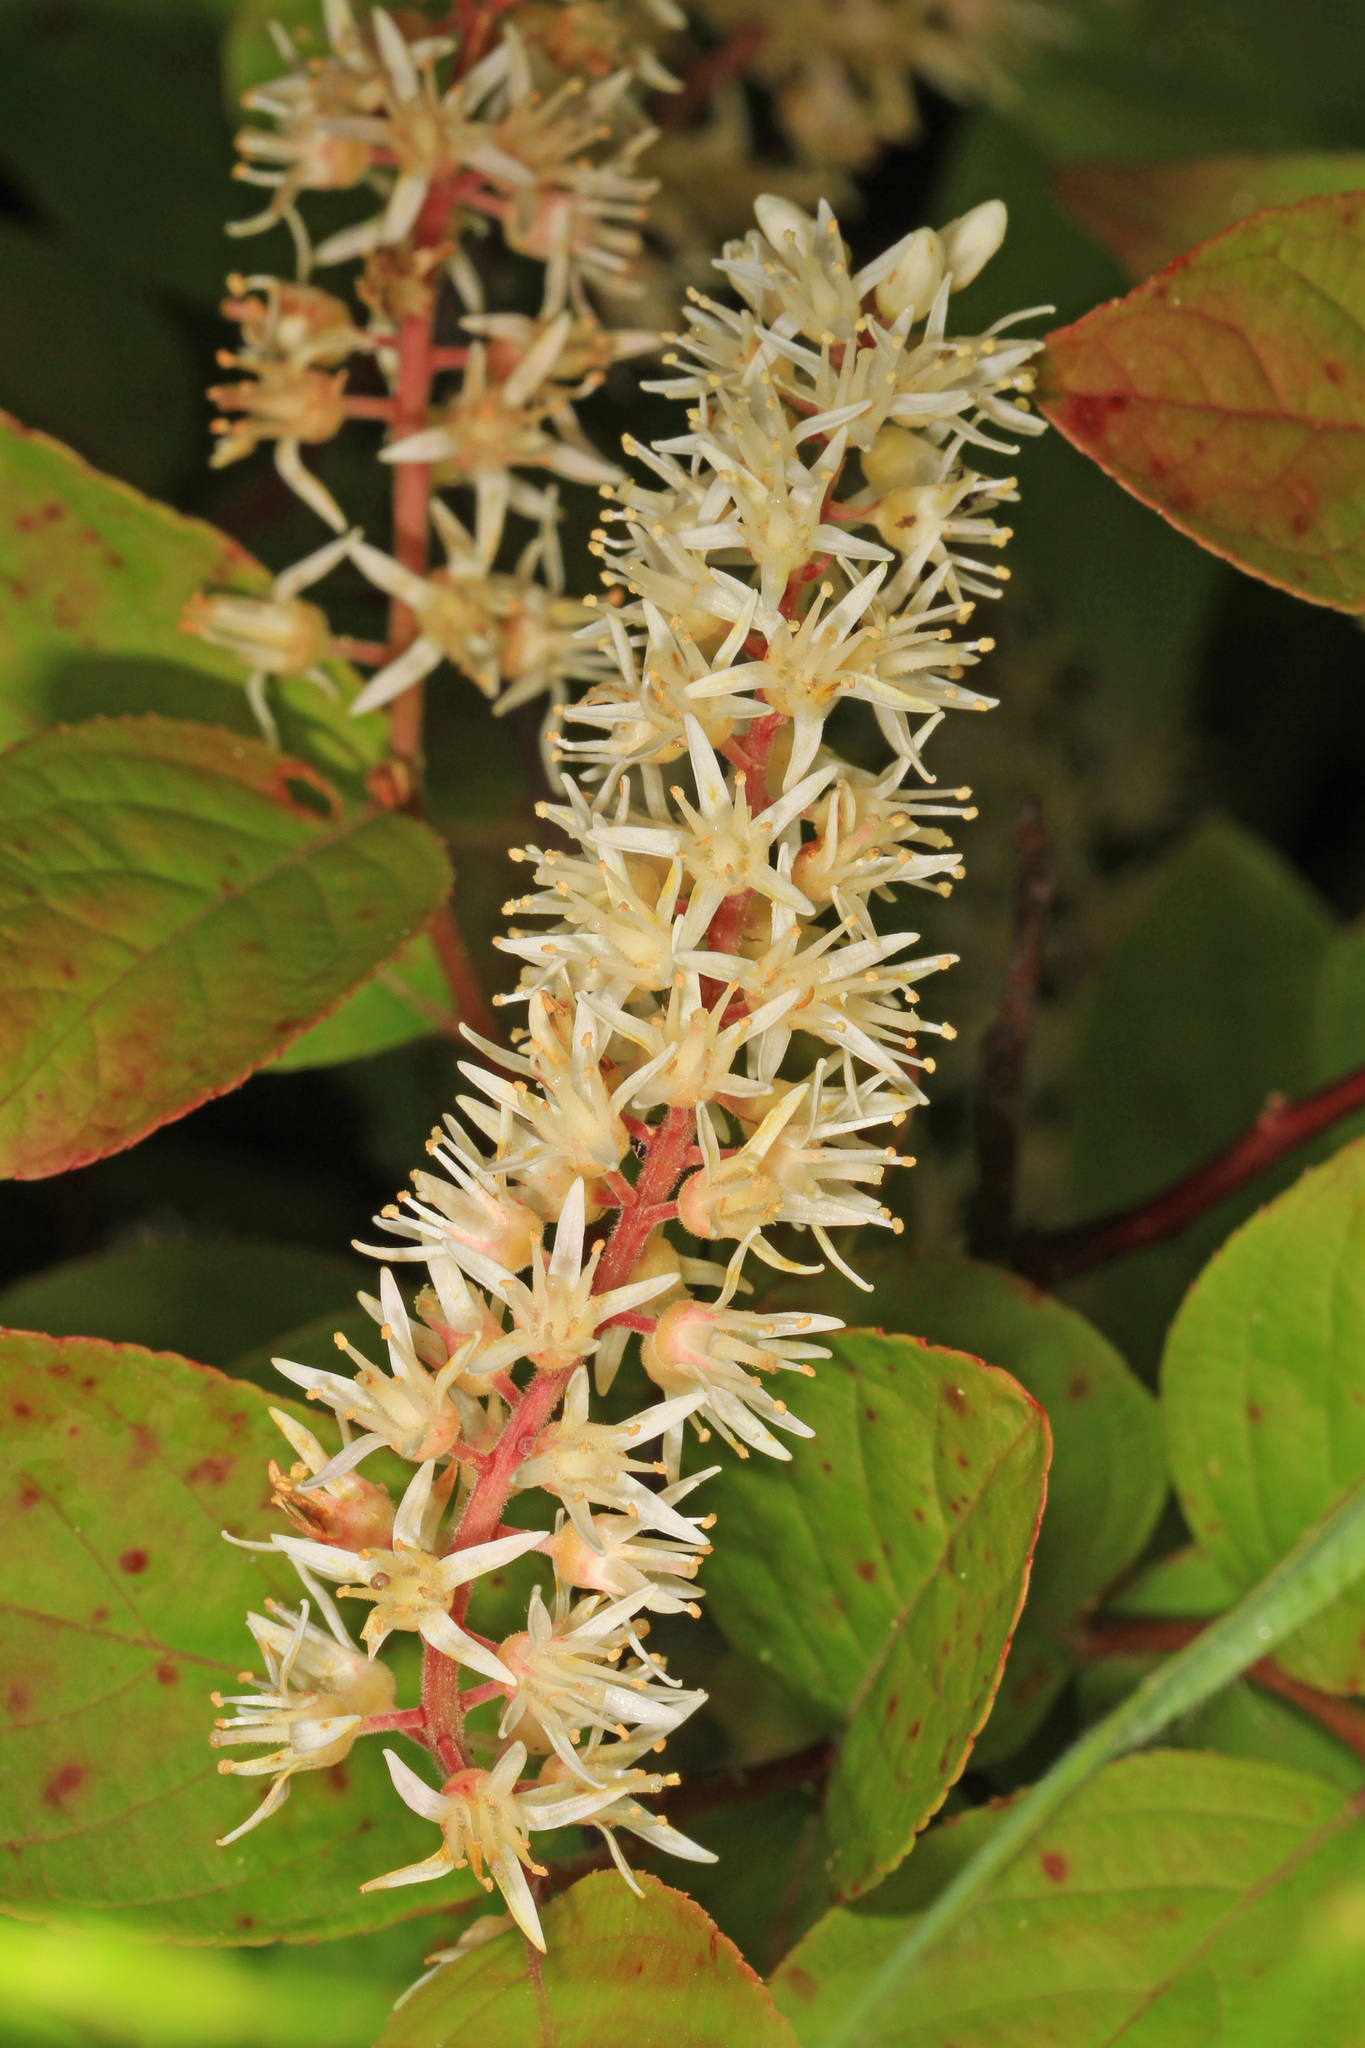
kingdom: Plantae
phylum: Tracheophyta
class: Magnoliopsida
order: Saxifragales
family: Iteaceae
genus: Itea
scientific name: Itea virginica
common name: Sweetspire
